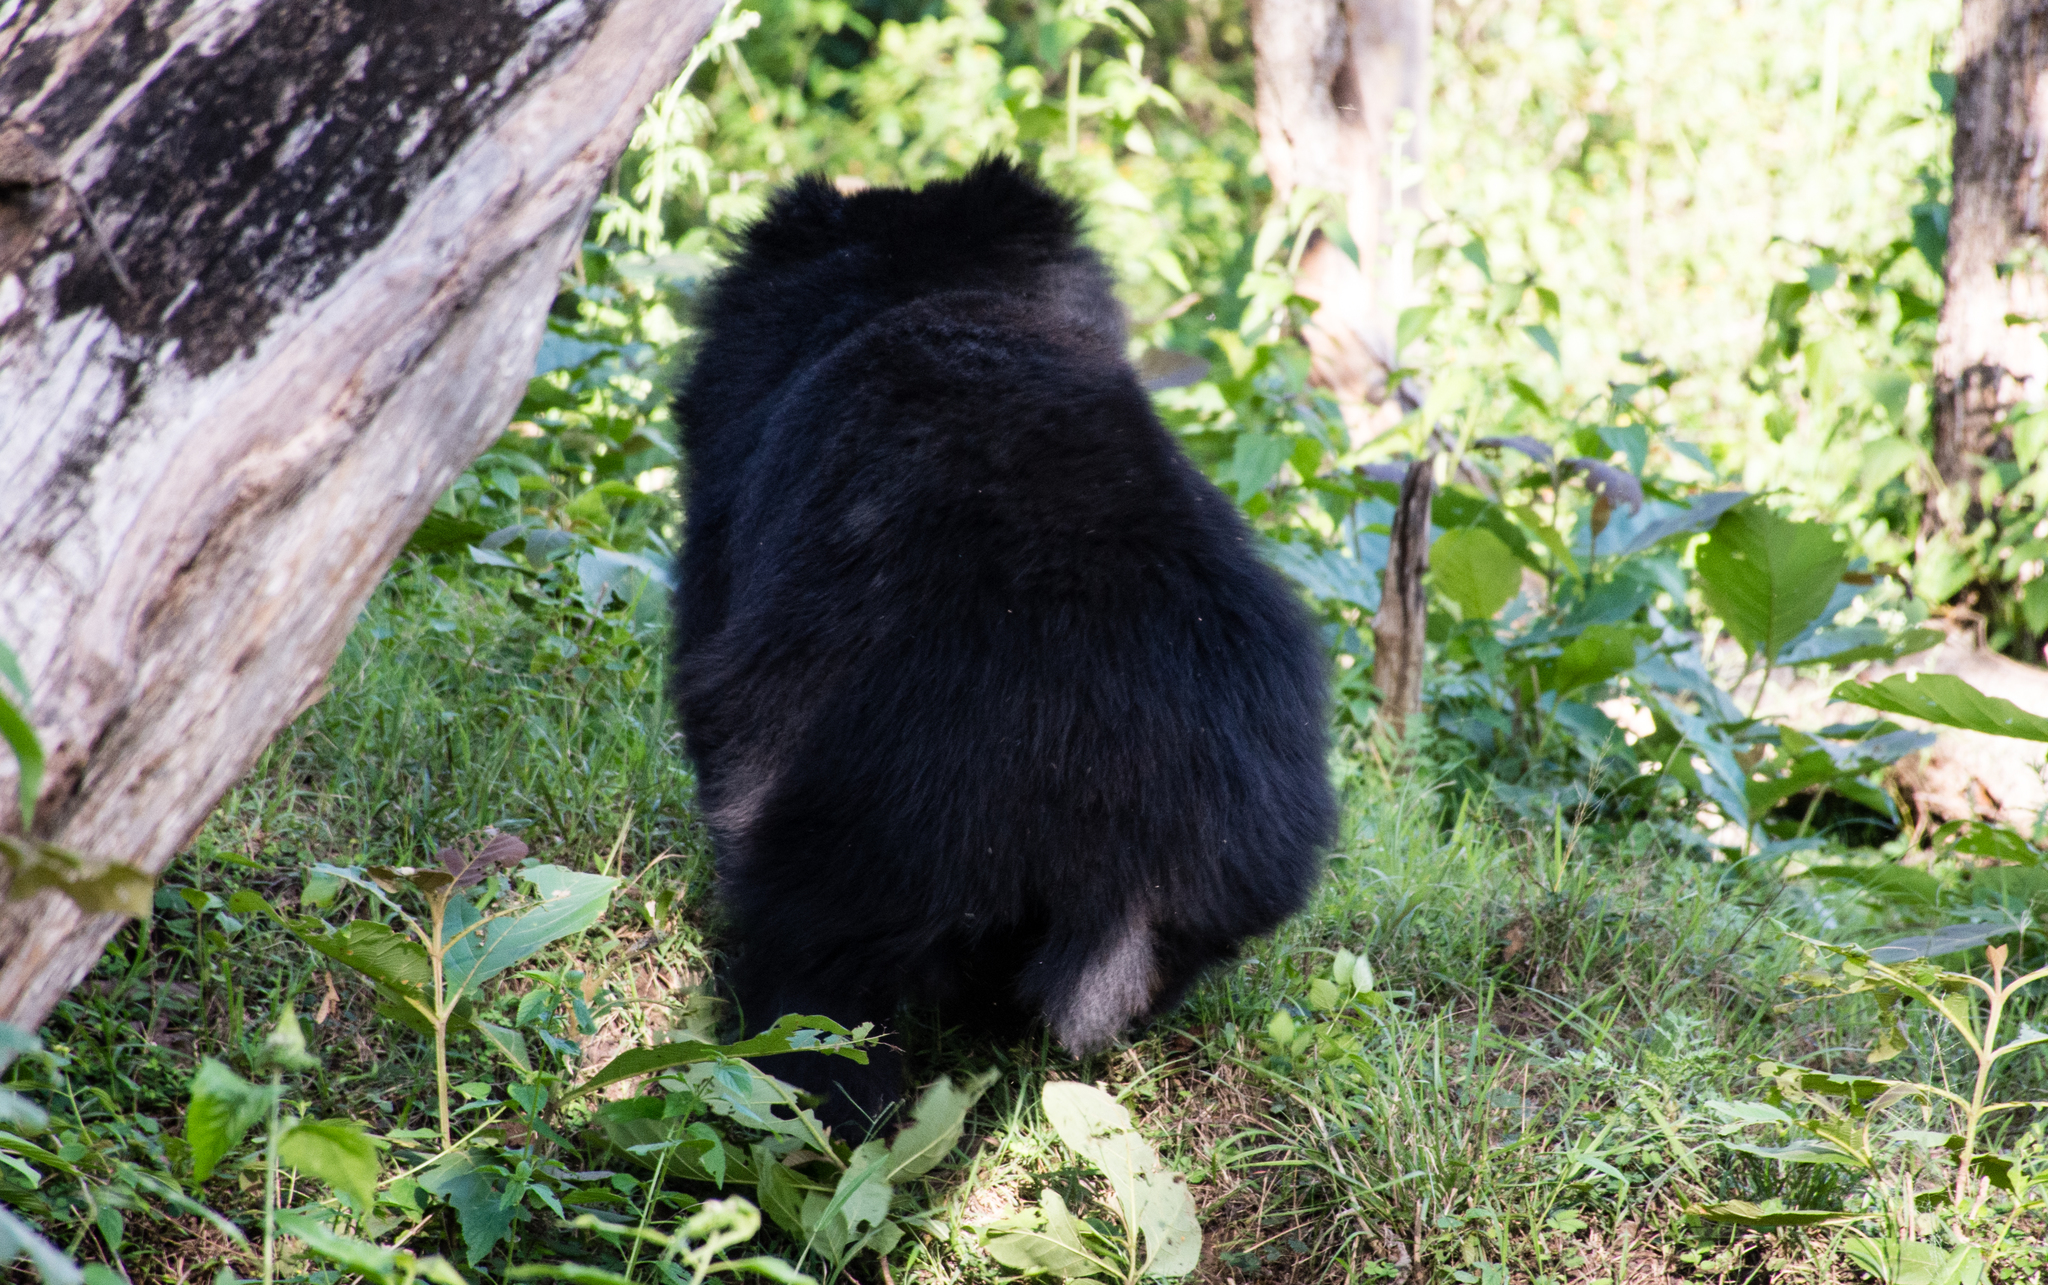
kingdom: Animalia
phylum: Chordata
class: Mammalia
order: Carnivora
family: Ursidae
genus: Melursus
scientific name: Melursus ursinus
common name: Sloth bear
